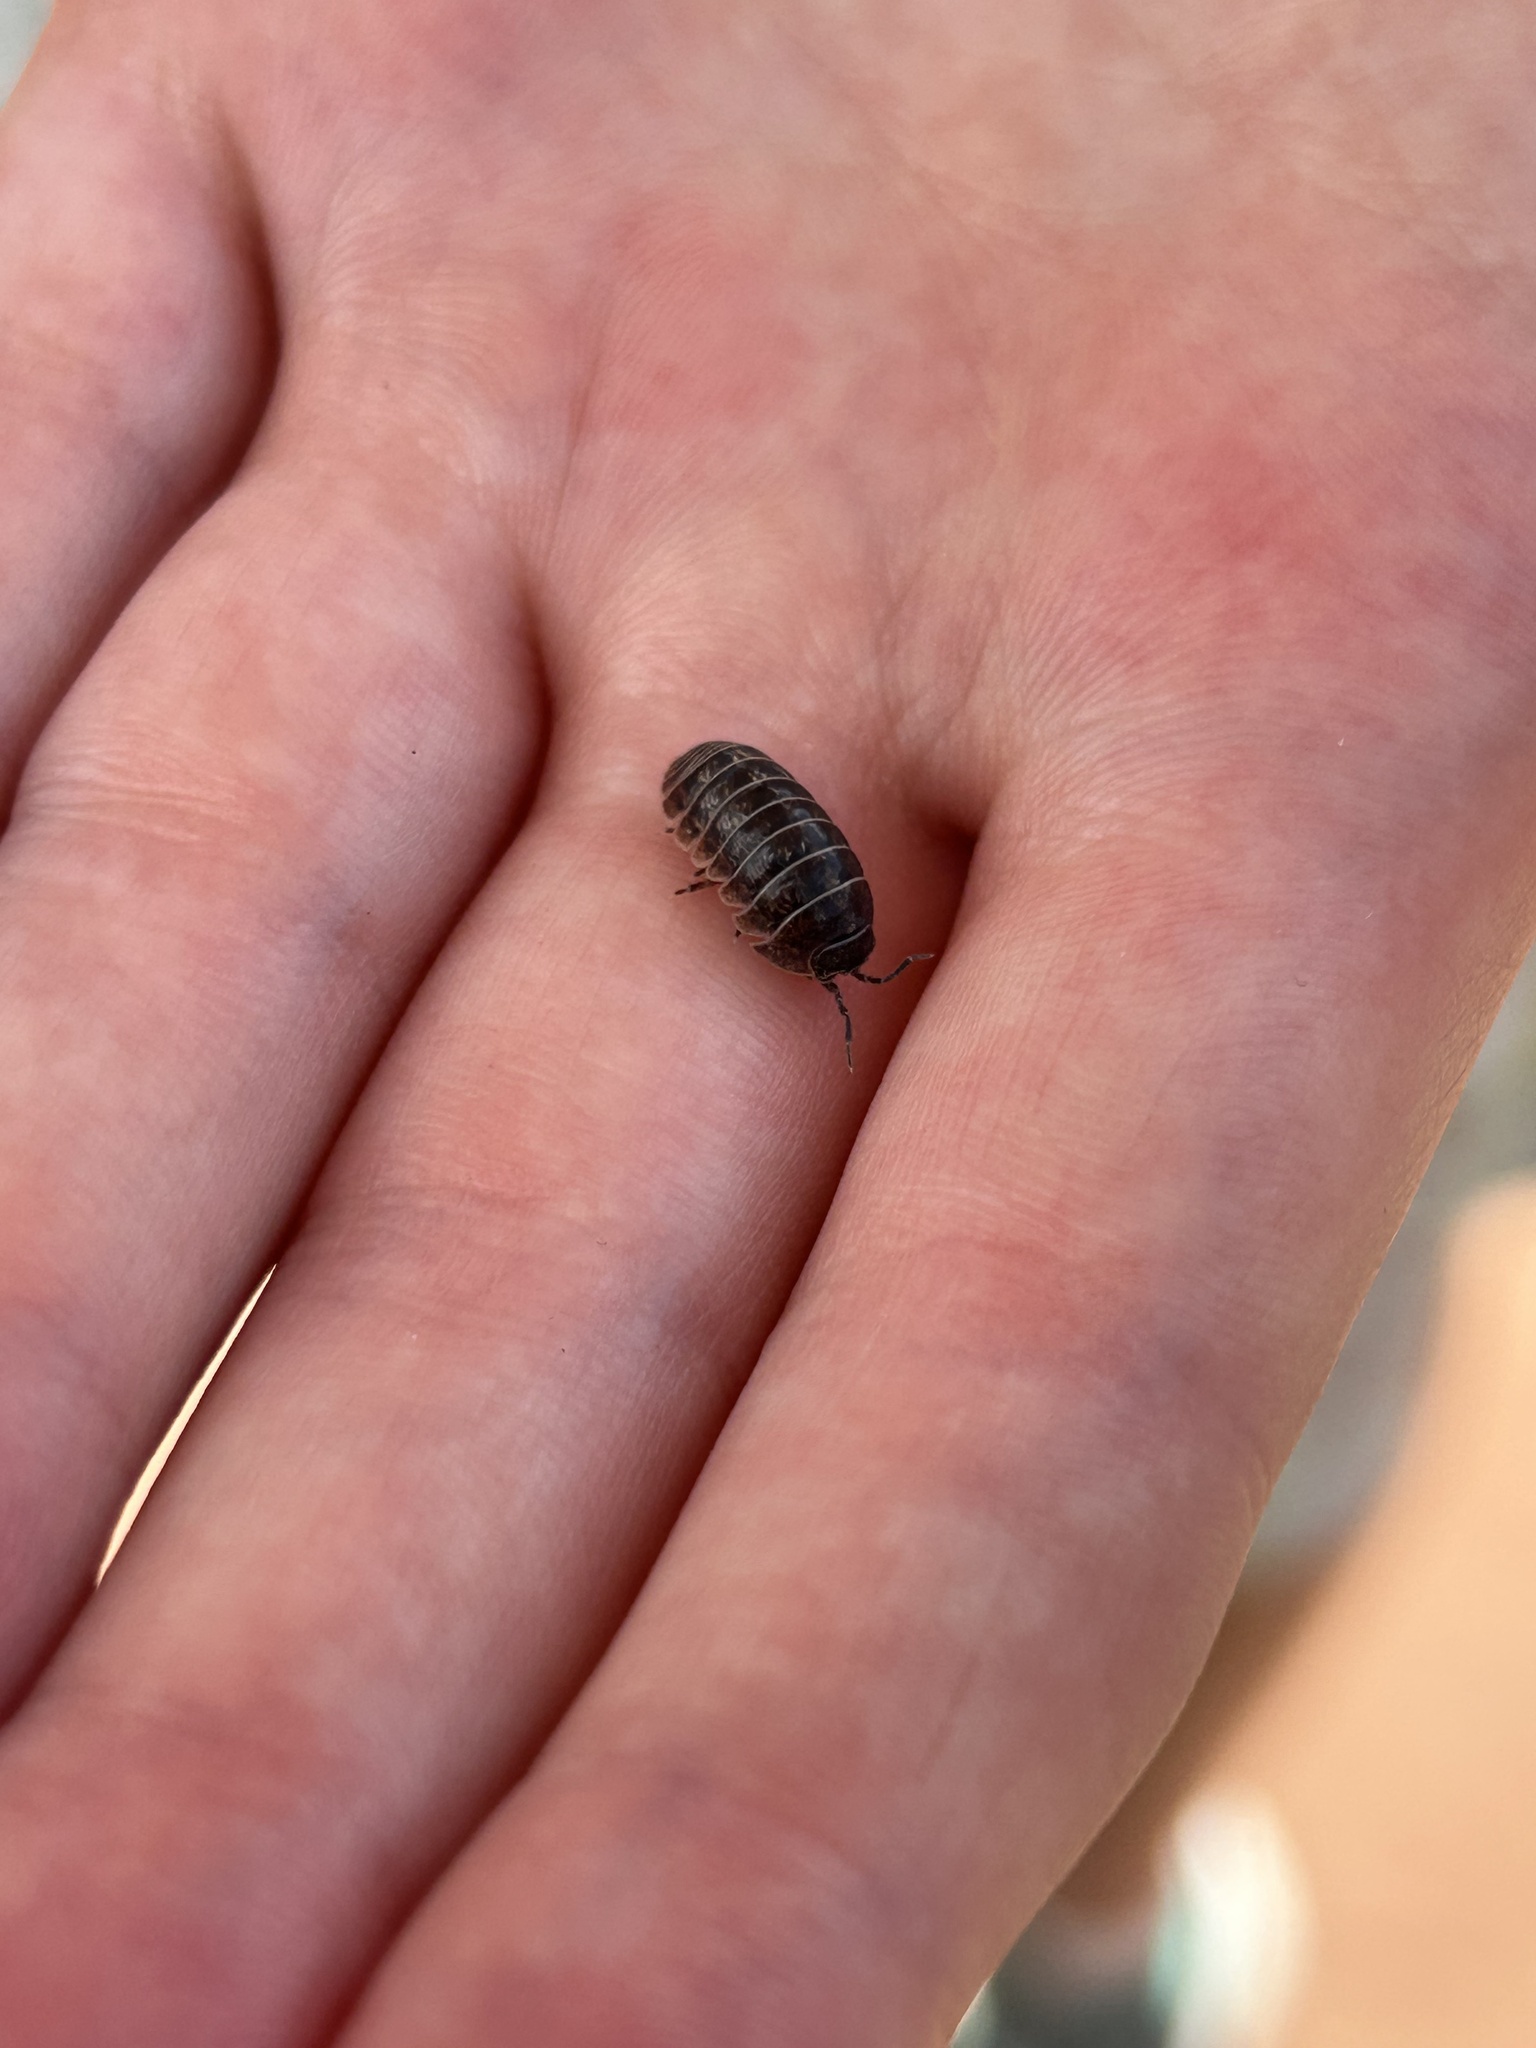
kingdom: Animalia
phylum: Arthropoda
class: Malacostraca
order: Isopoda
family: Armadillidiidae
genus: Armadillidium
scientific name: Armadillidium vulgare
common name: Common pill woodlouse
